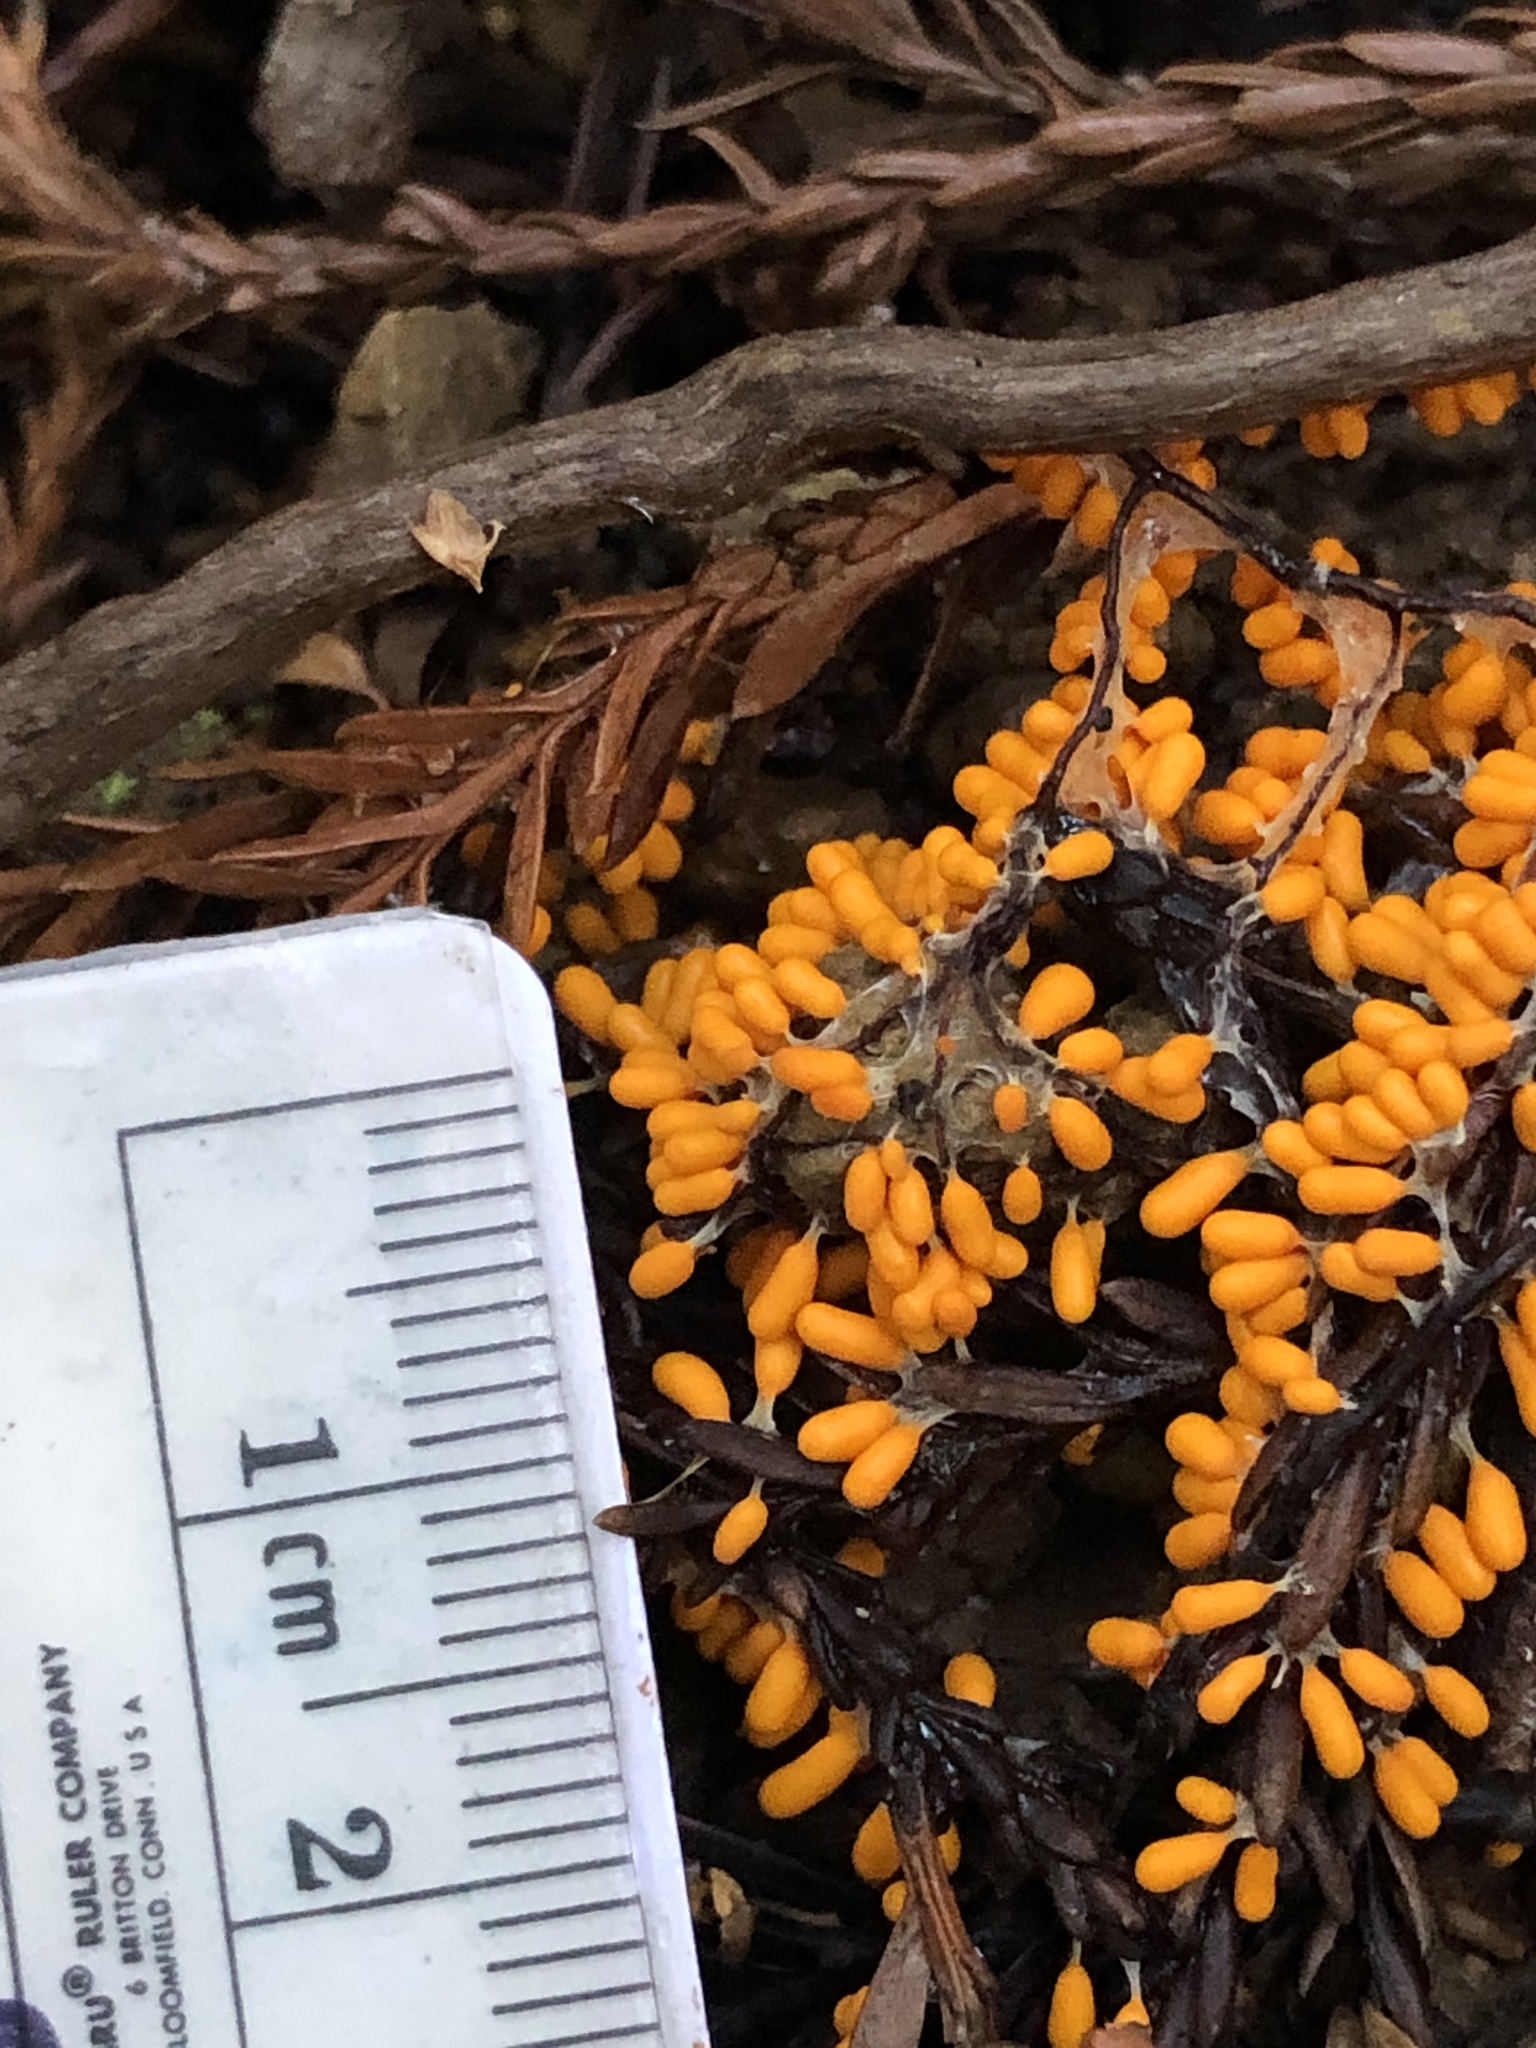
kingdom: Protozoa
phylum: Mycetozoa
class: Myxomycetes
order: Physarales
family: Physaraceae
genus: Leocarpus
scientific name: Leocarpus fragilis
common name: Insect-egg slime
